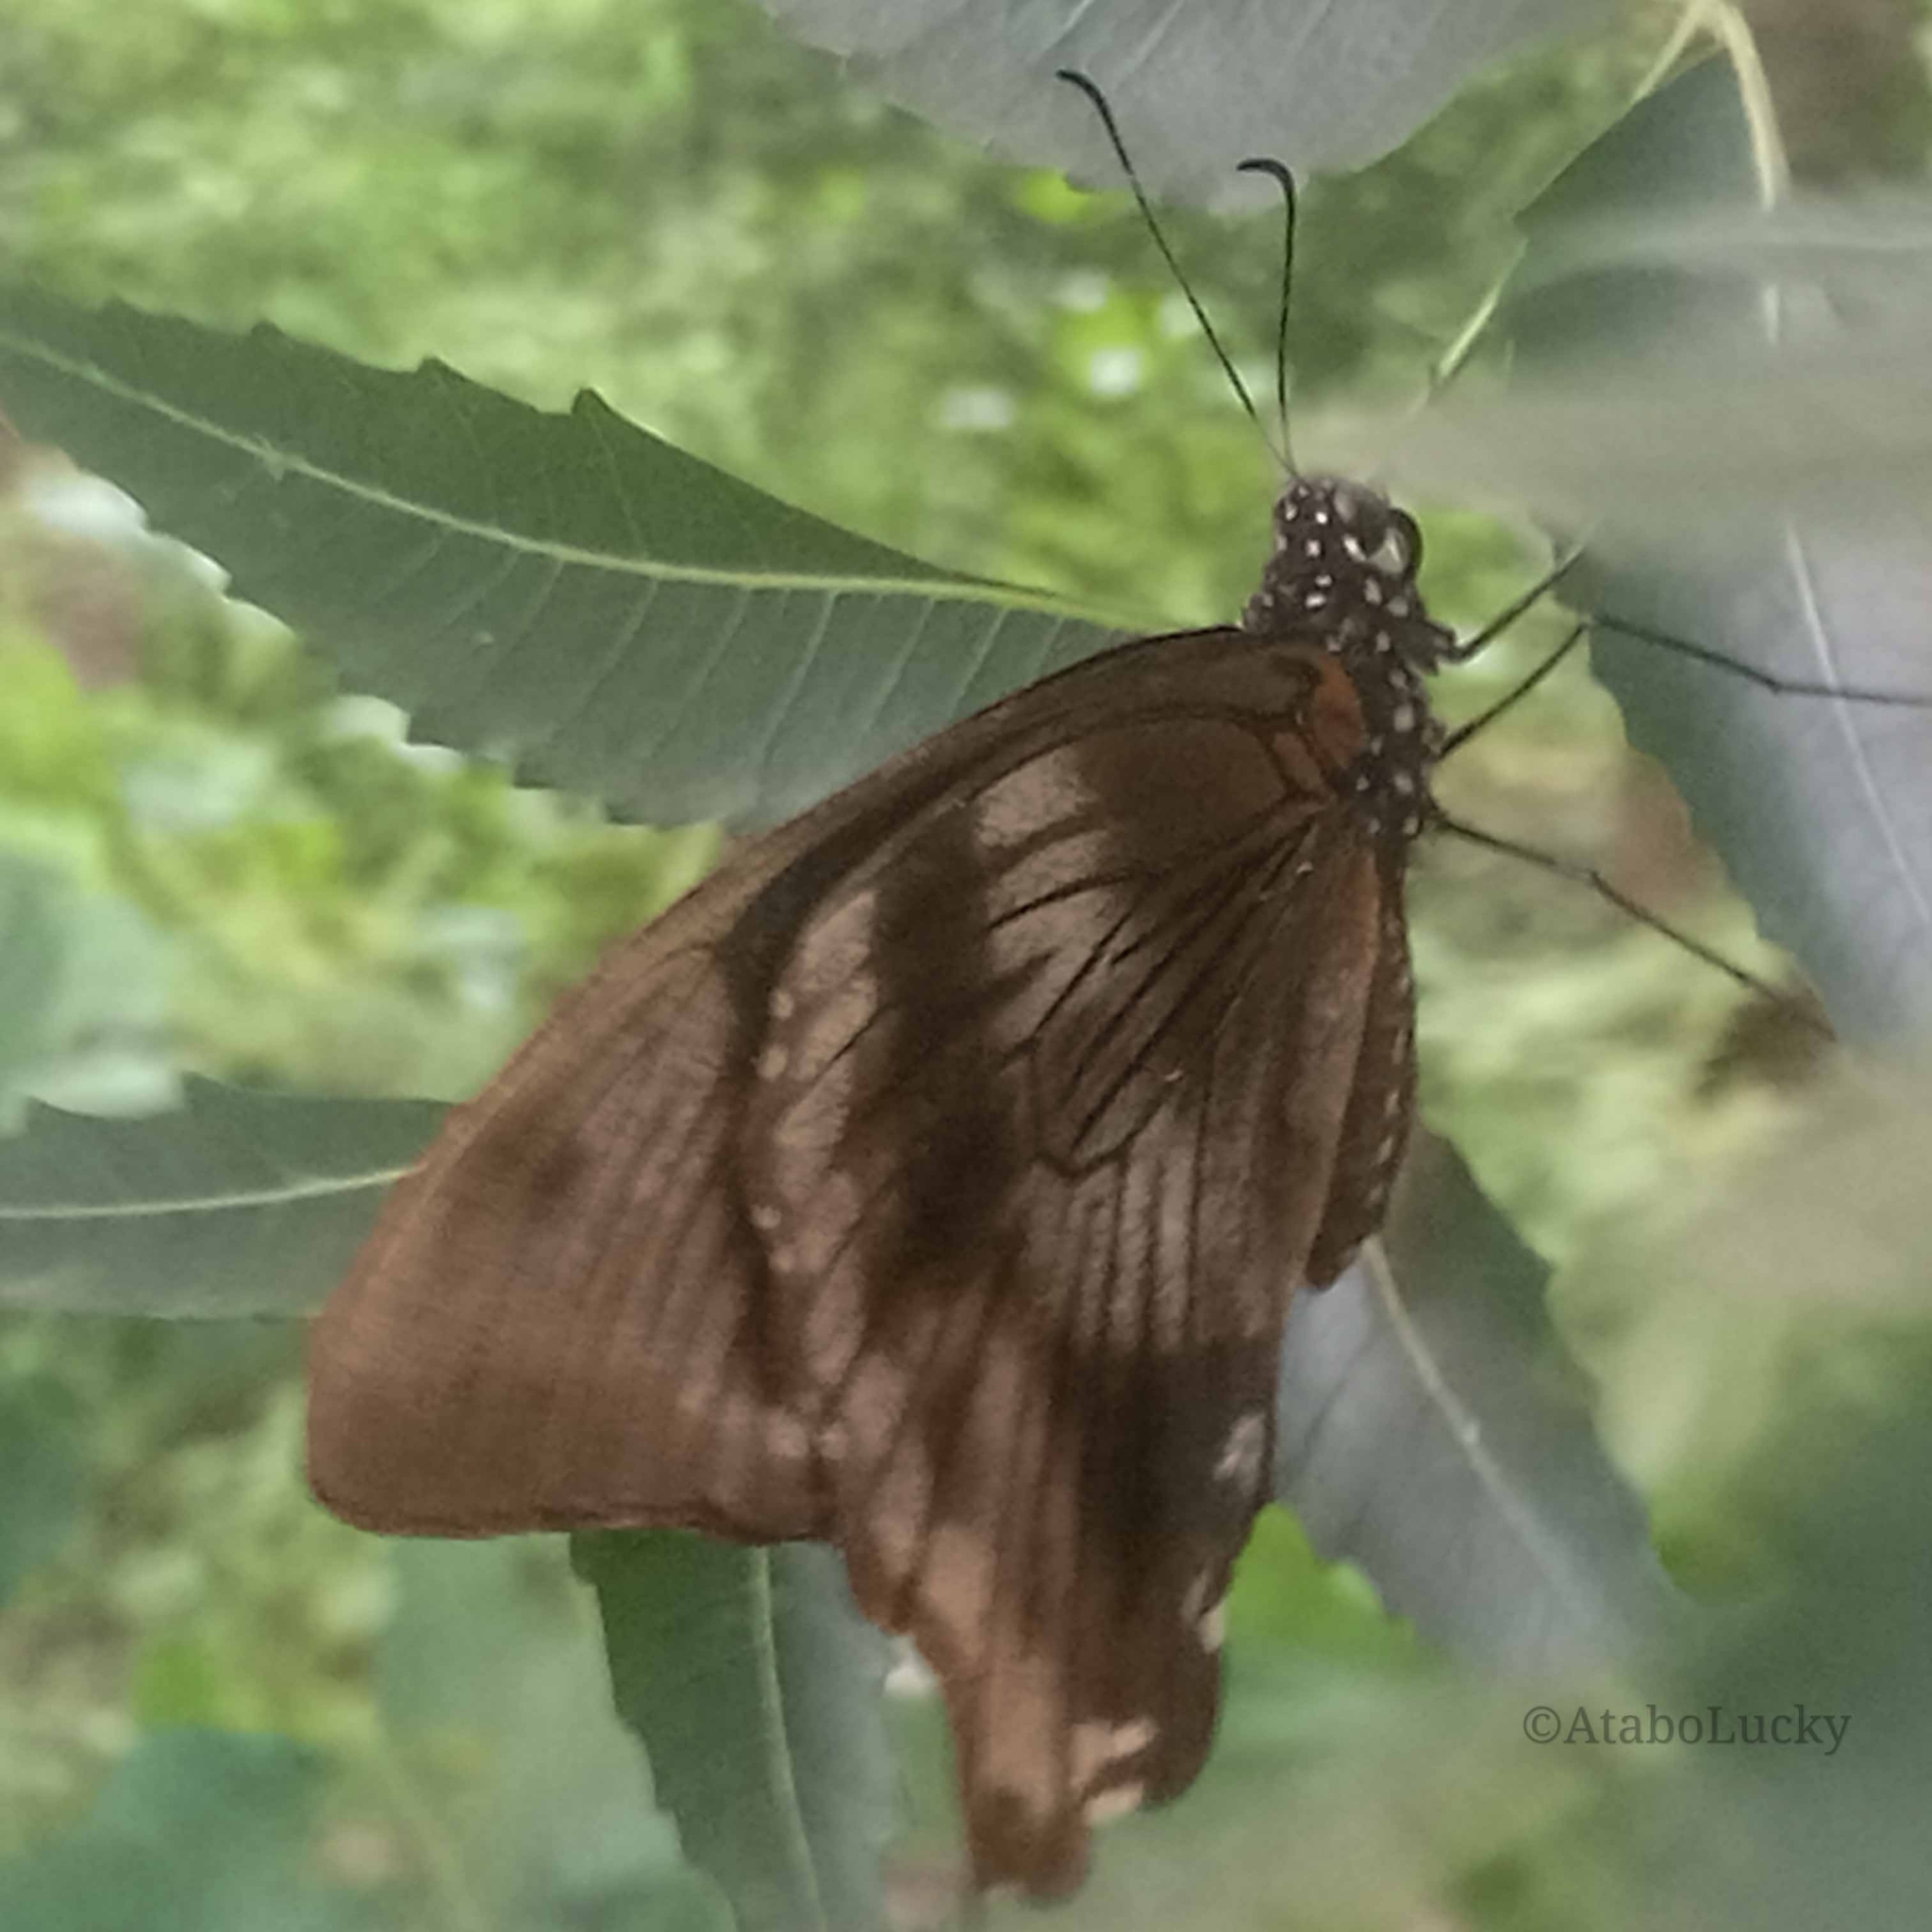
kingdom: Animalia
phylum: Arthropoda
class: Insecta
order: Lepidoptera
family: Papilionidae
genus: Papilio
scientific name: Papilio nireus
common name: Greenbanded swallowtail
